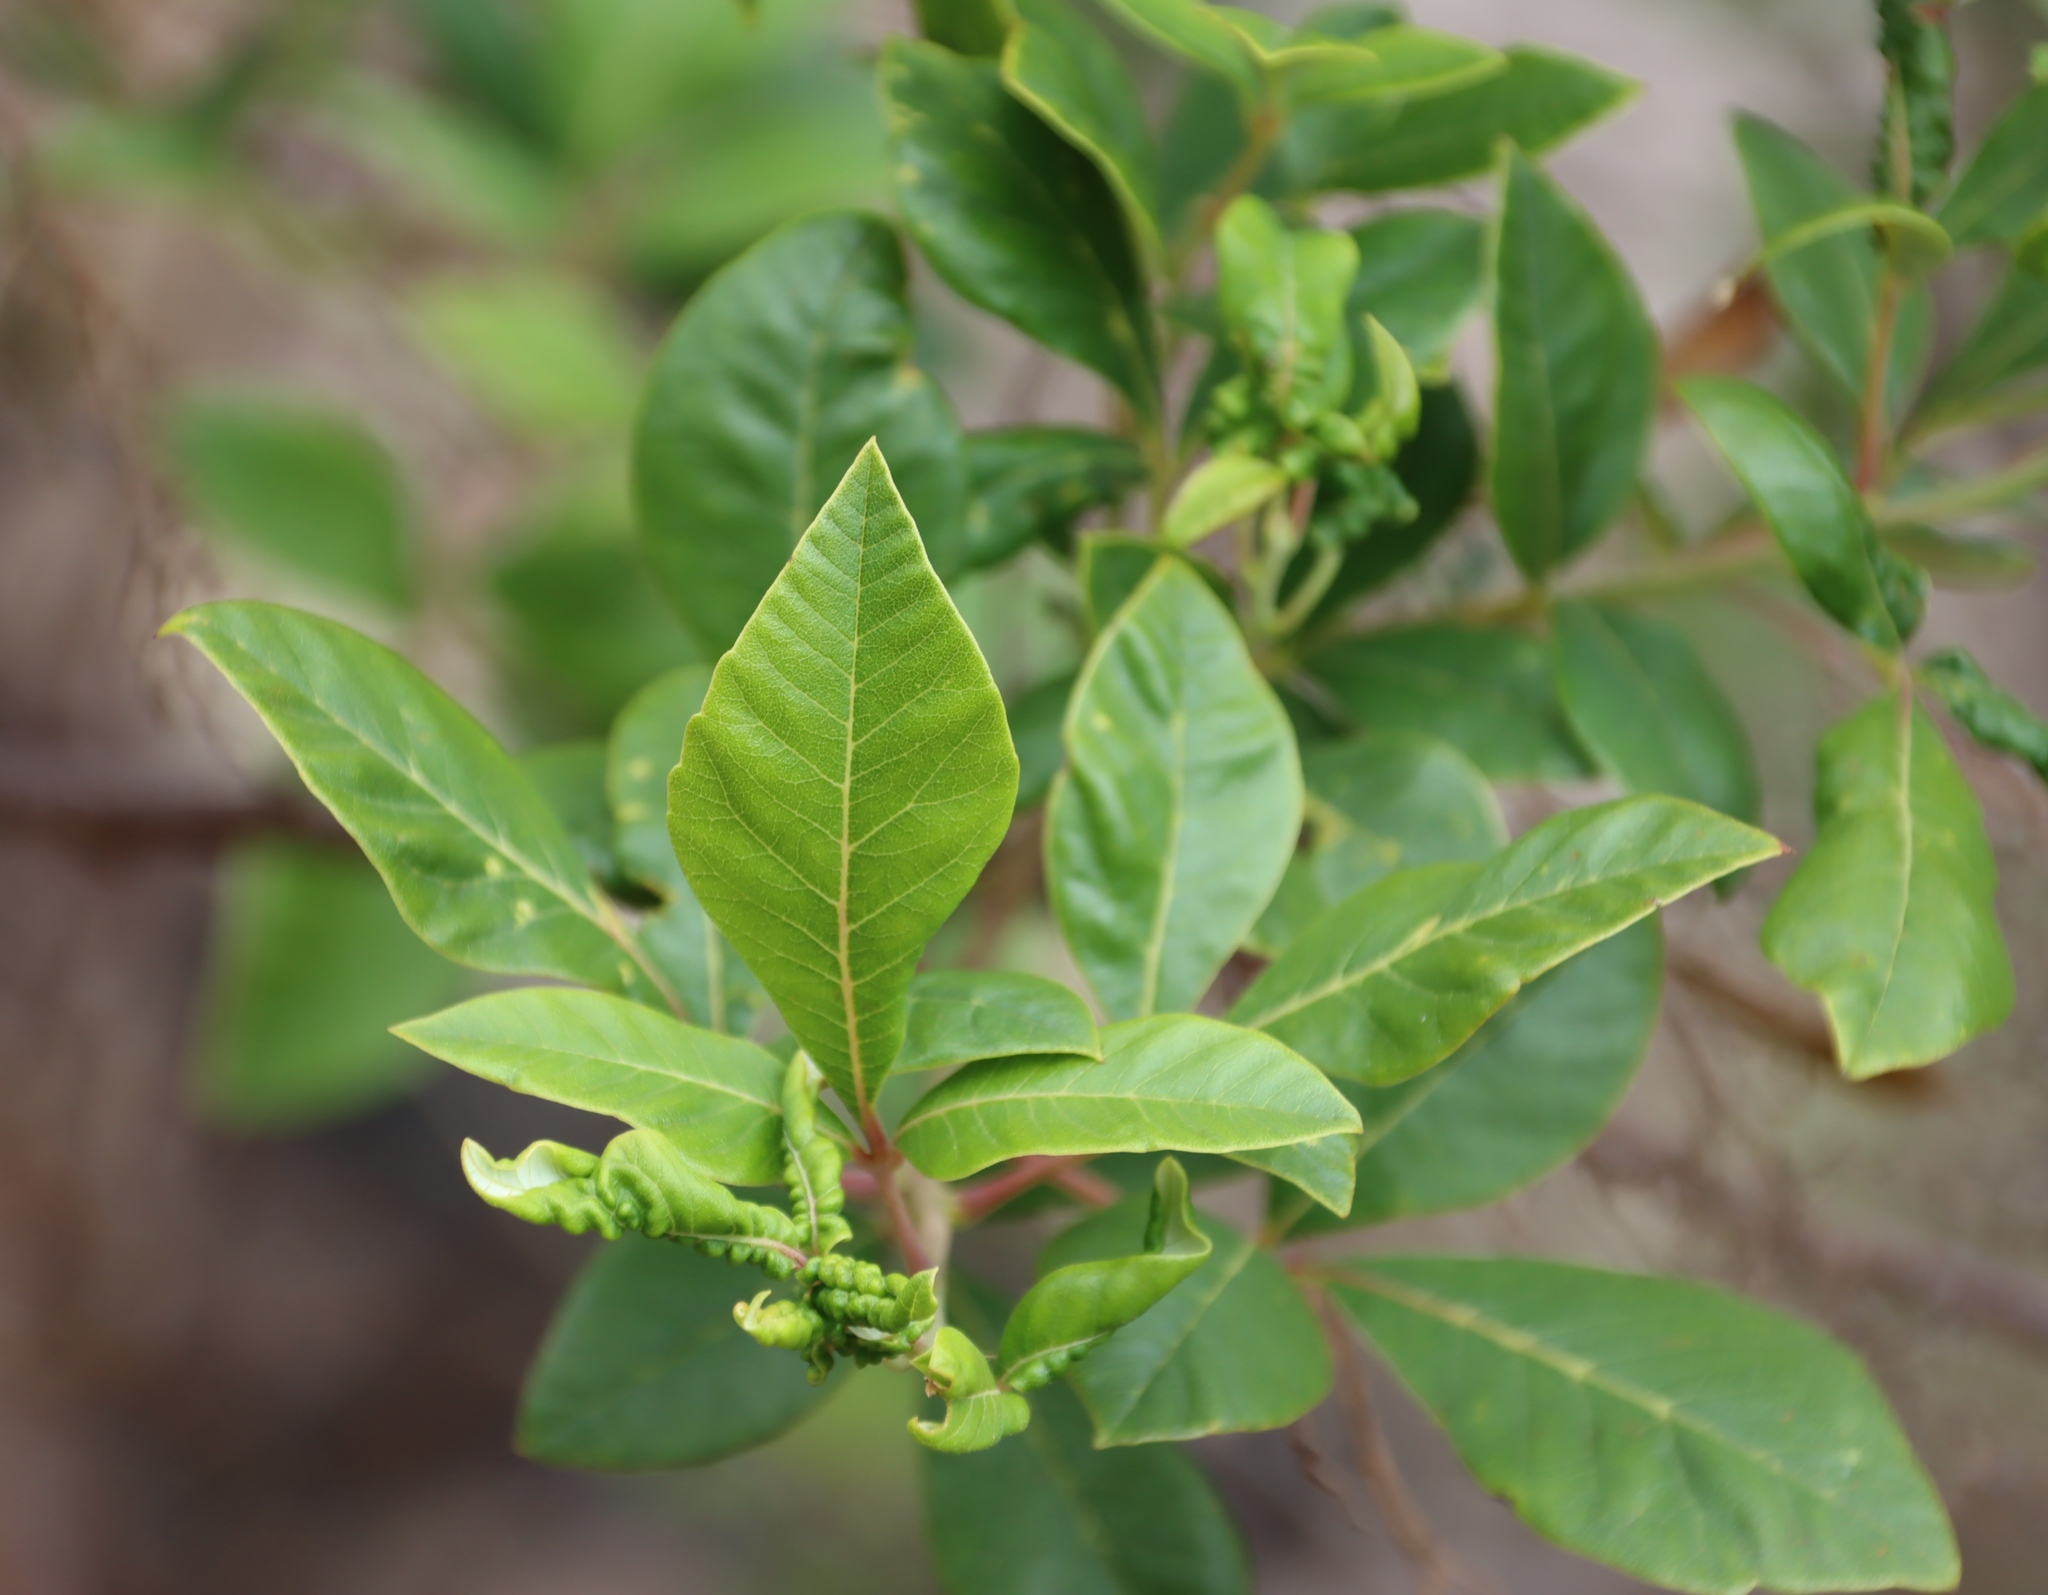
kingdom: Plantae
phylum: Tracheophyta
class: Magnoliopsida
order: Sapindales
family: Anacardiaceae
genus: Searsia
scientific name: Searsia tomentosa
